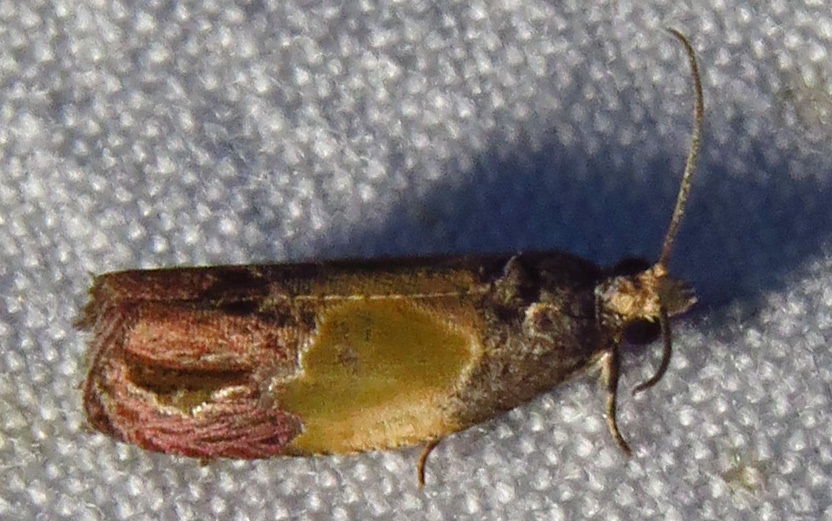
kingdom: Animalia
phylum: Arthropoda
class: Insecta
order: Lepidoptera
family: Tortricidae
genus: Eumarozia
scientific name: Eumarozia malachitana
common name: Sculptured moth
